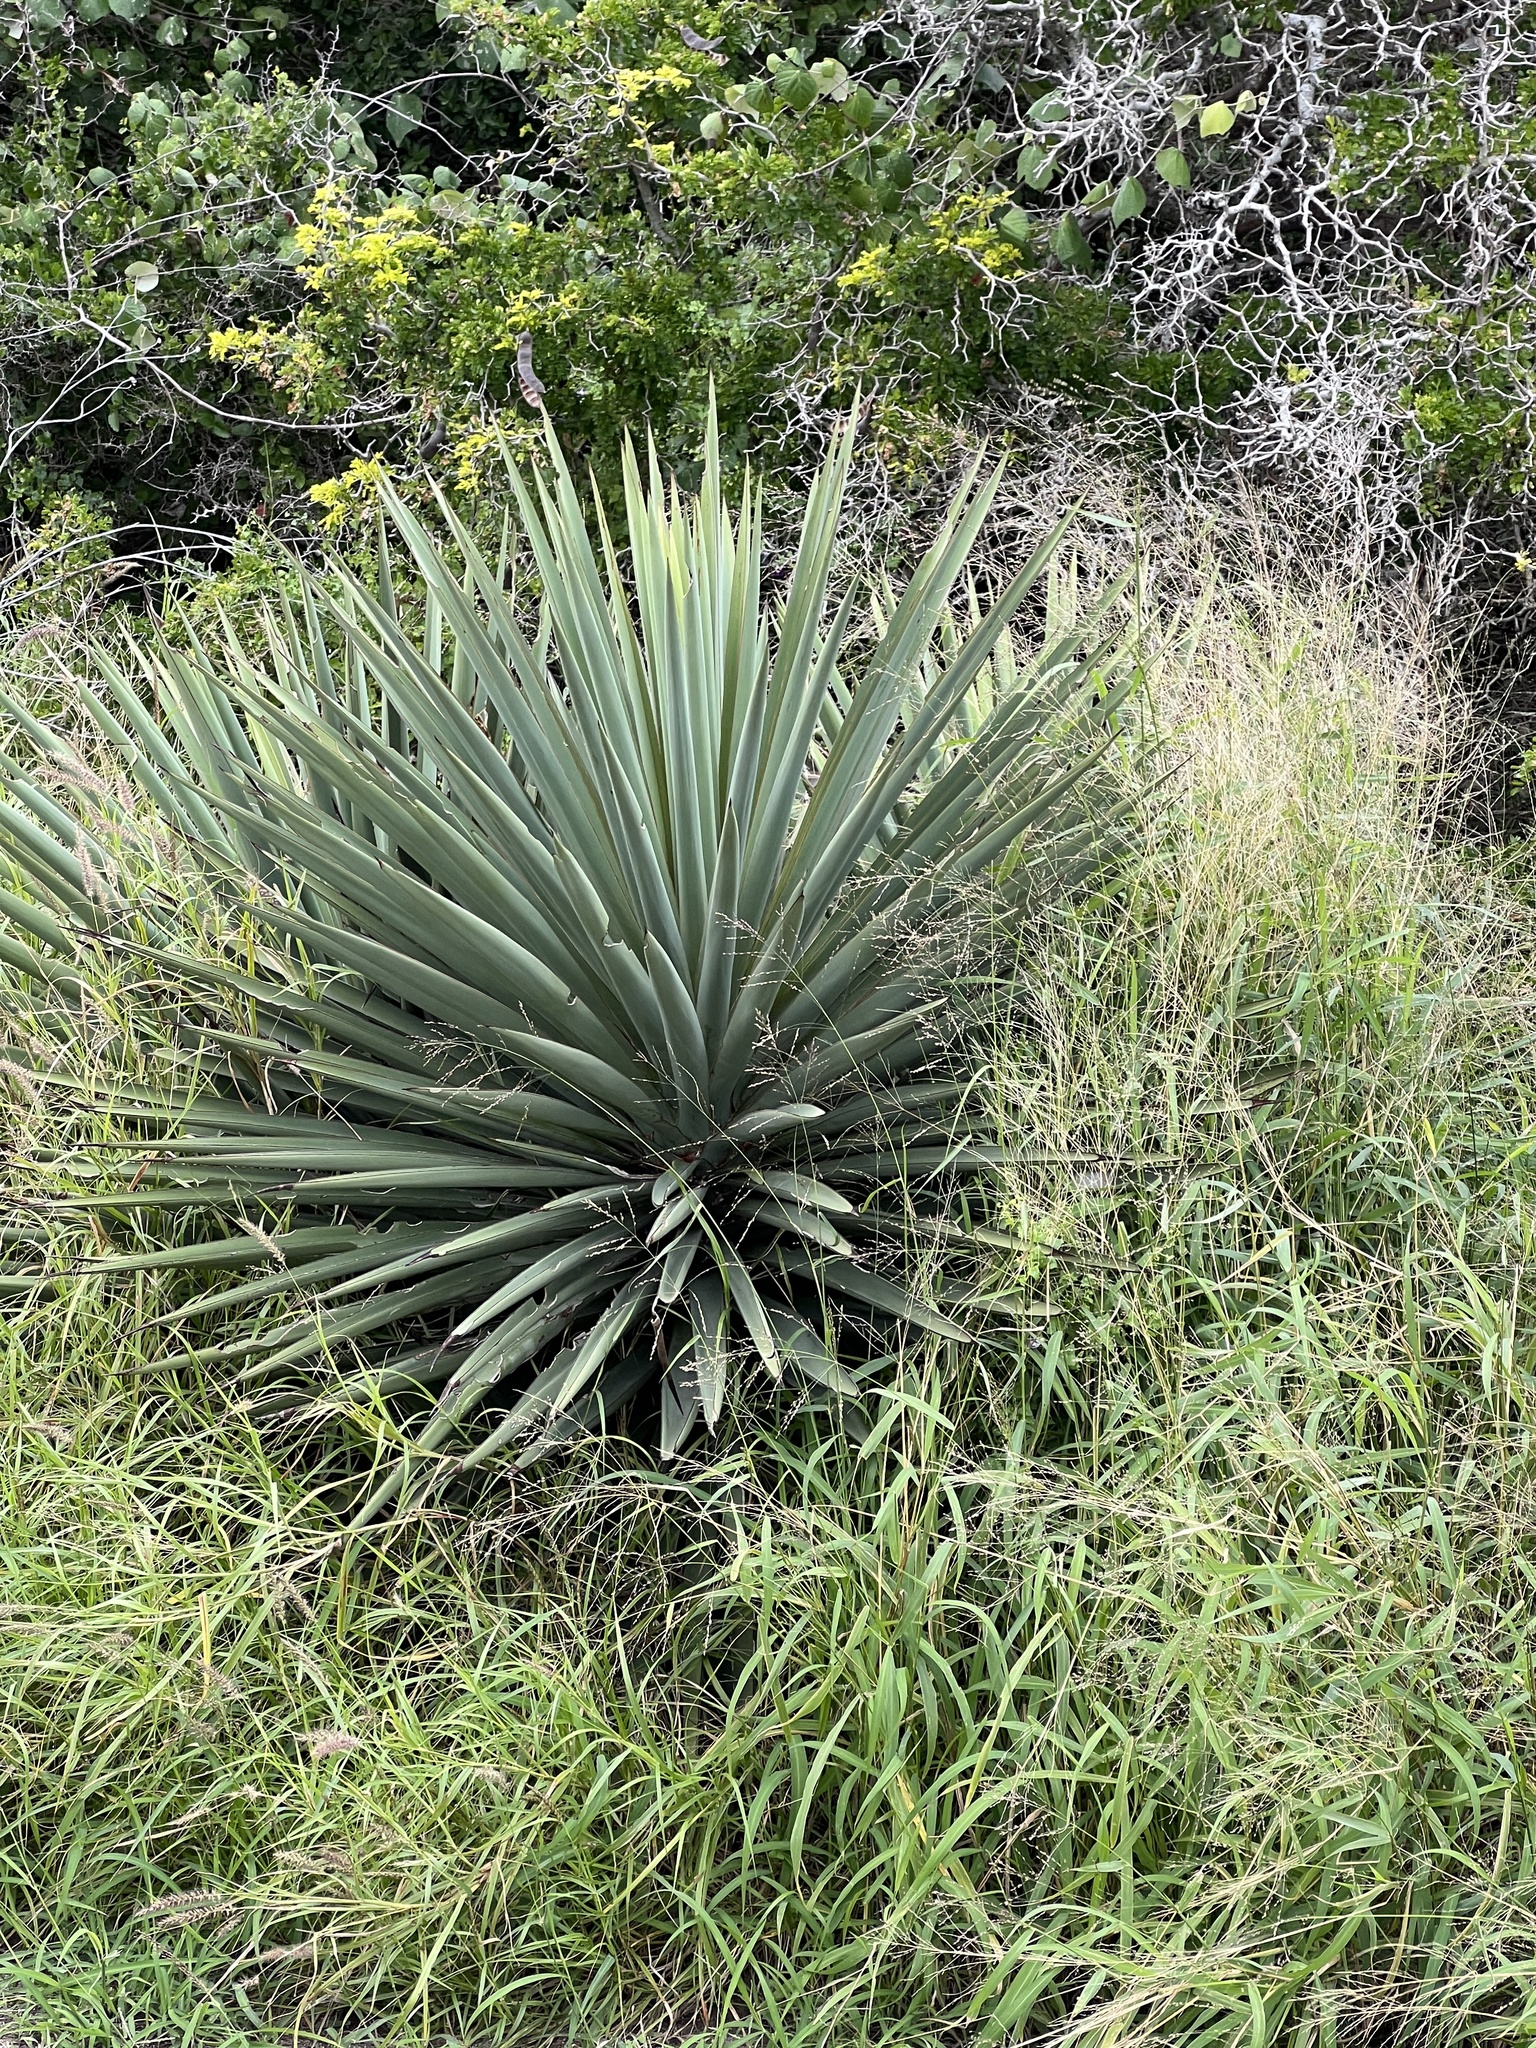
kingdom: Plantae
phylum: Tracheophyta
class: Liliopsida
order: Asparagales
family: Asparagaceae
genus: Yucca
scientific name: Yucca treculiana
